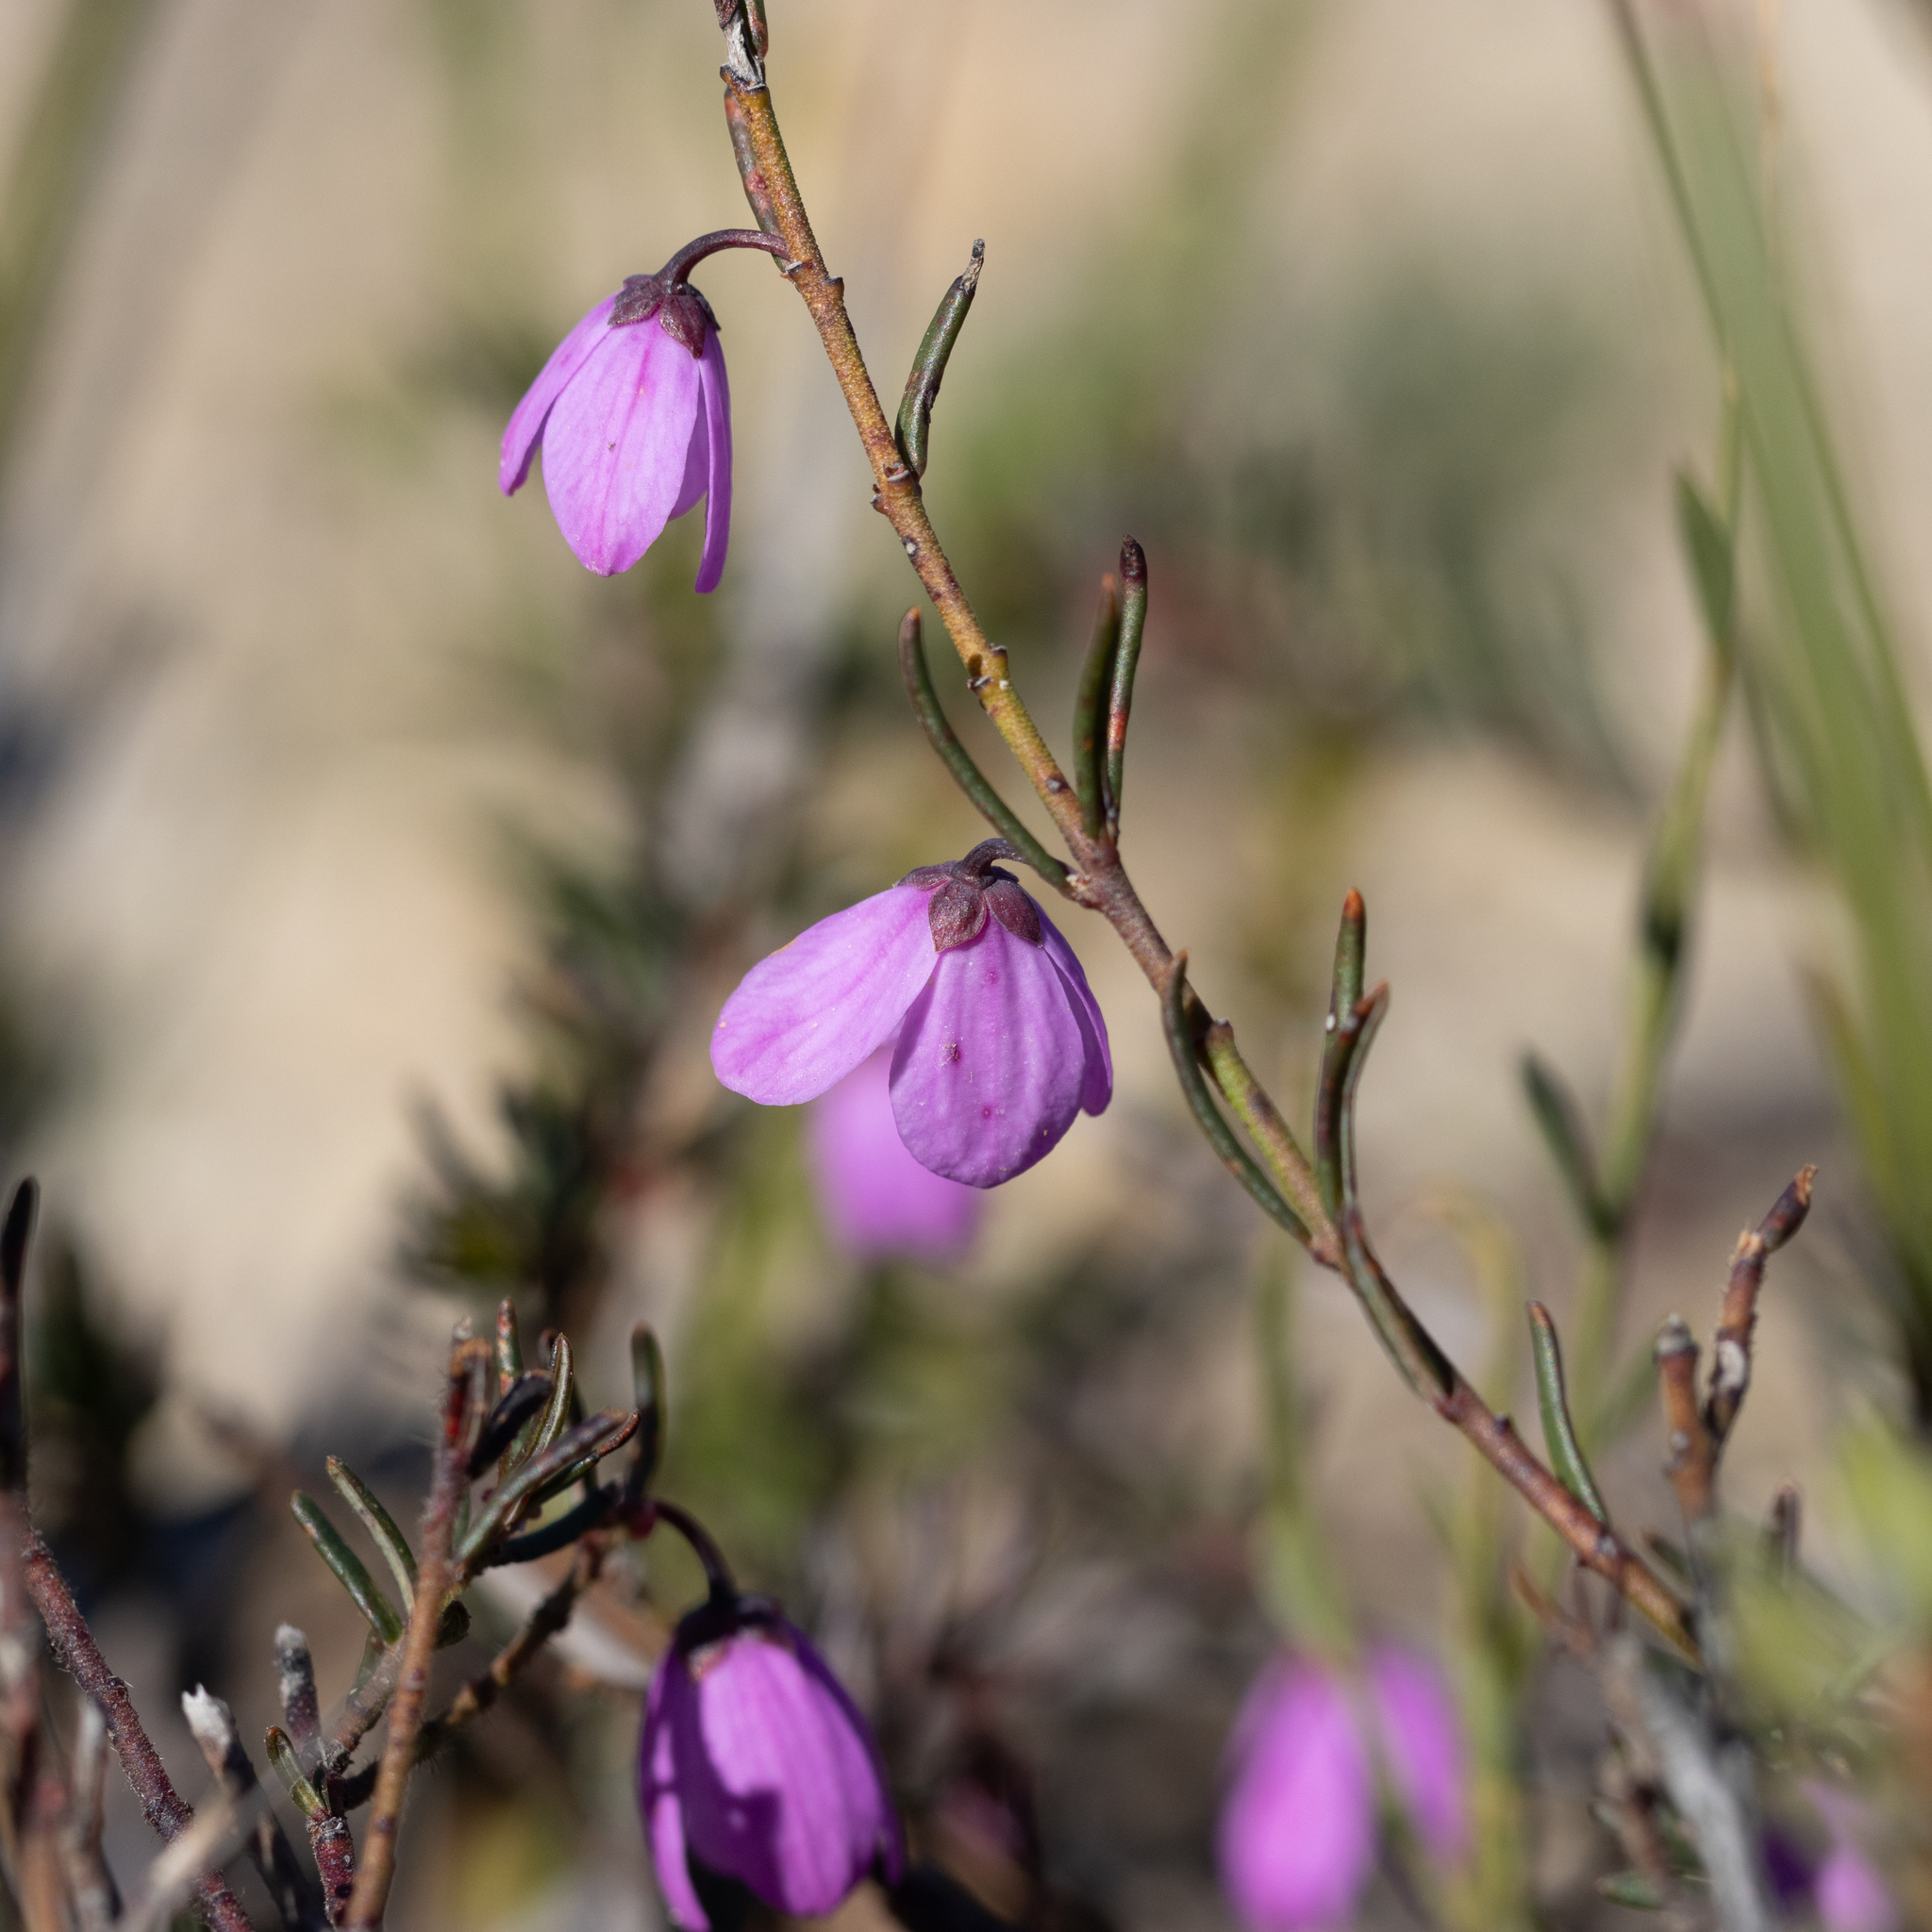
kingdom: Plantae
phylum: Tracheophyta
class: Magnoliopsida
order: Oxalidales
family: Elaeocarpaceae
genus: Tetratheca
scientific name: Tetratheca pilosa
